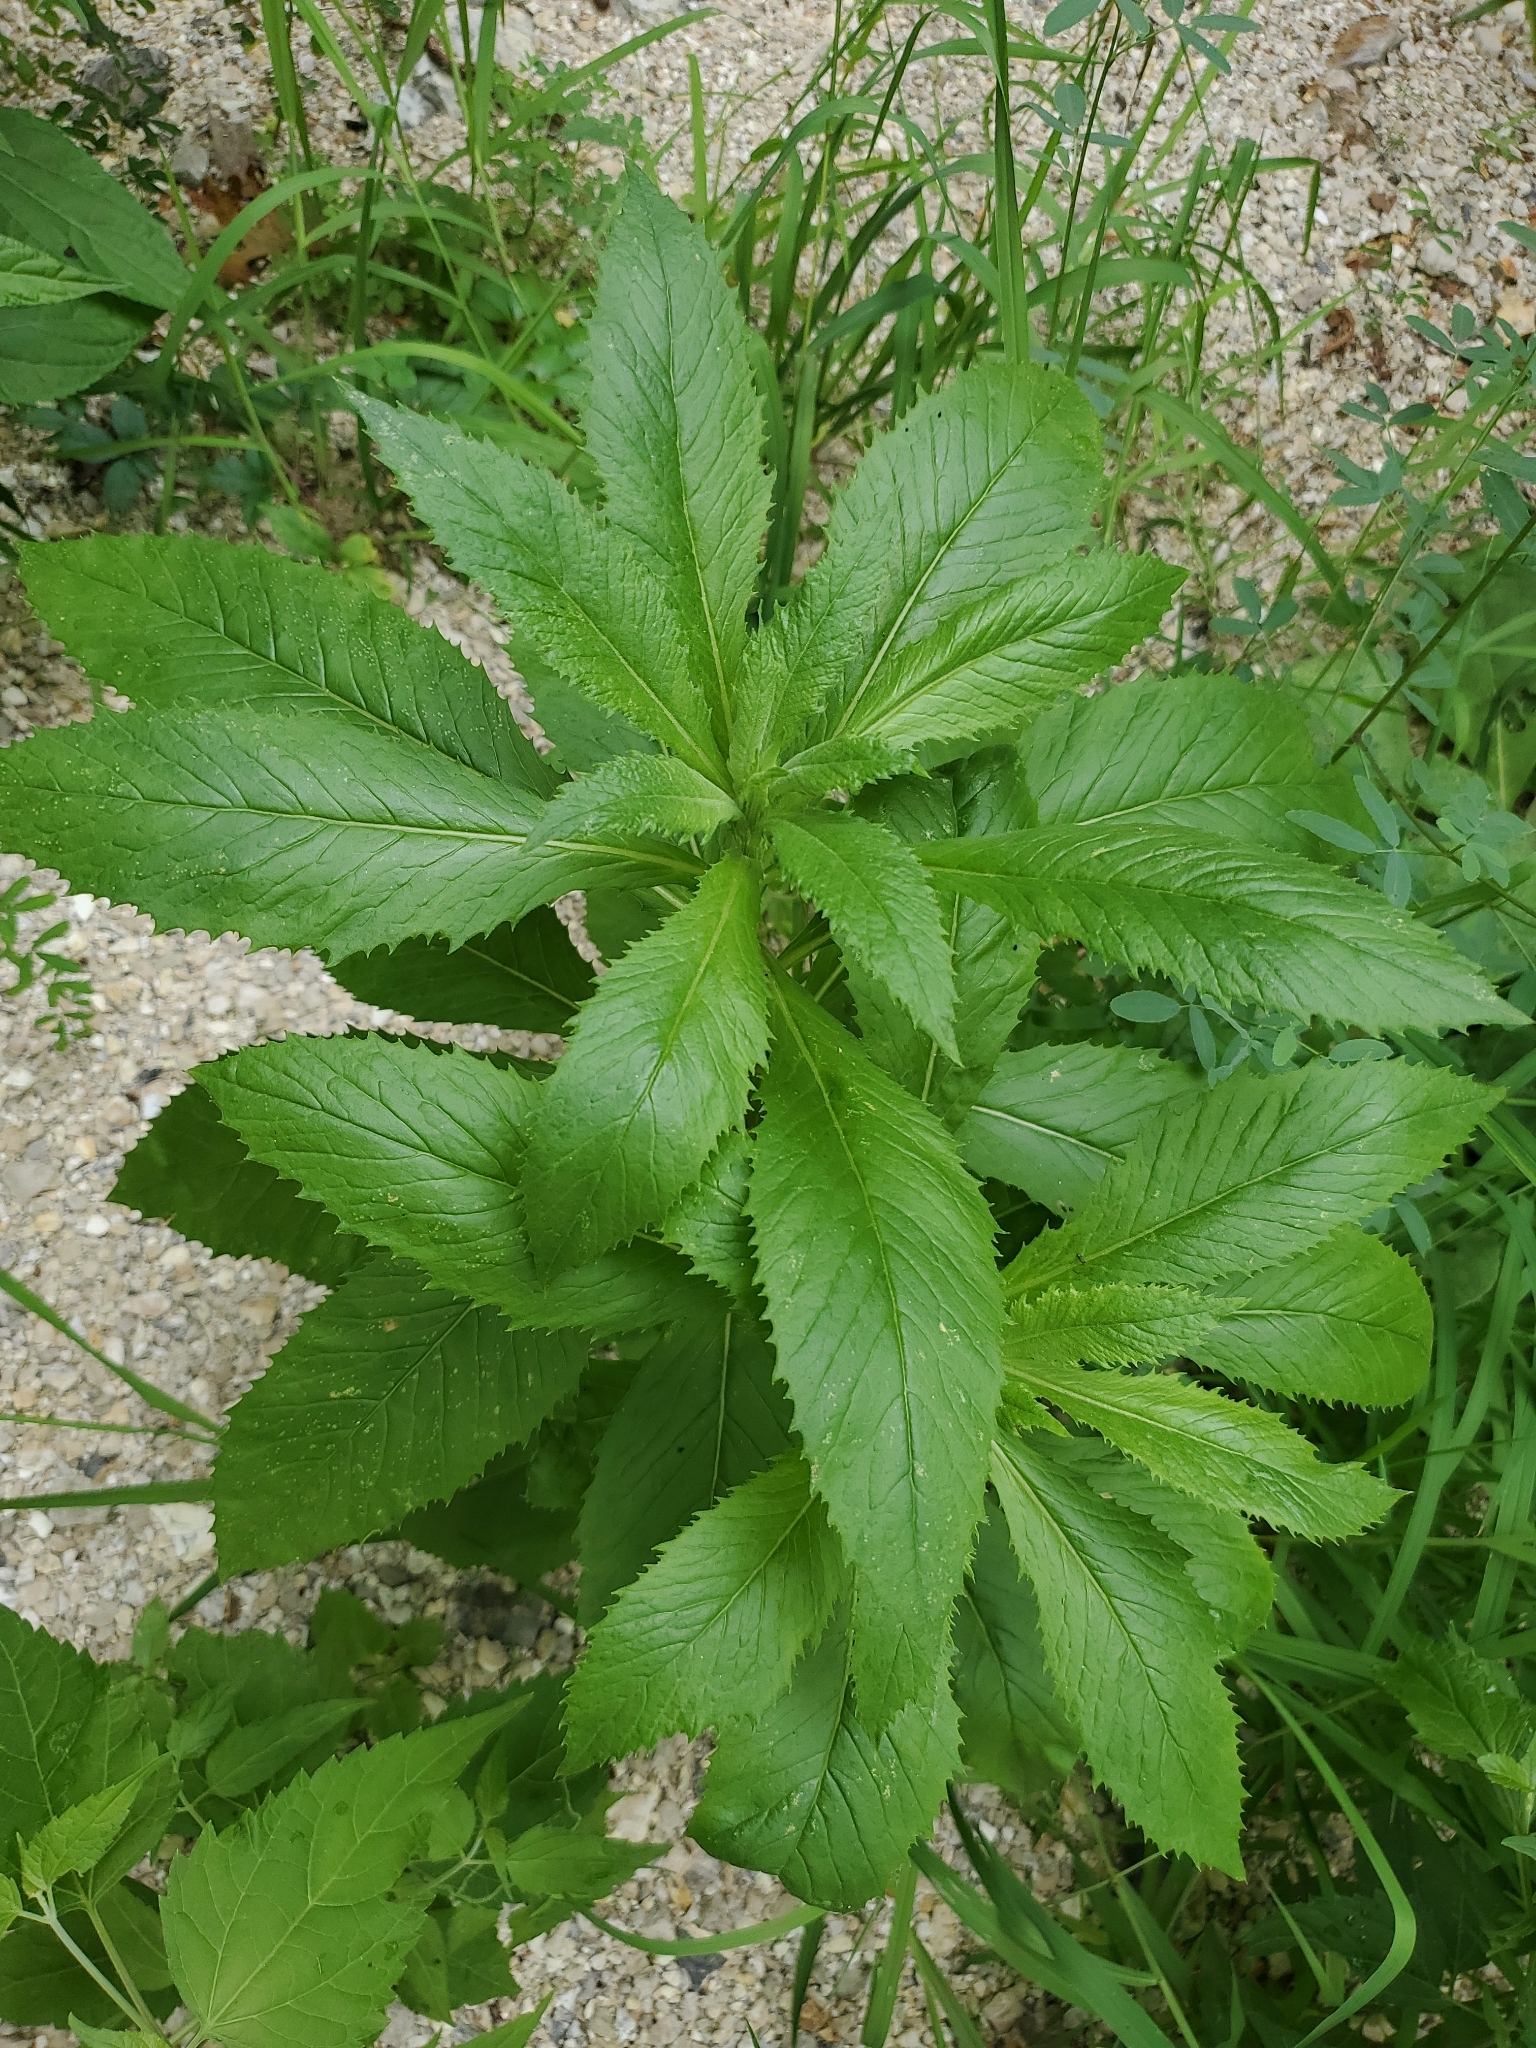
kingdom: Plantae
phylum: Tracheophyta
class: Magnoliopsida
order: Asterales
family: Asteraceae
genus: Erechtites
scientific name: Erechtites hieraciifolius
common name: American burnweed
